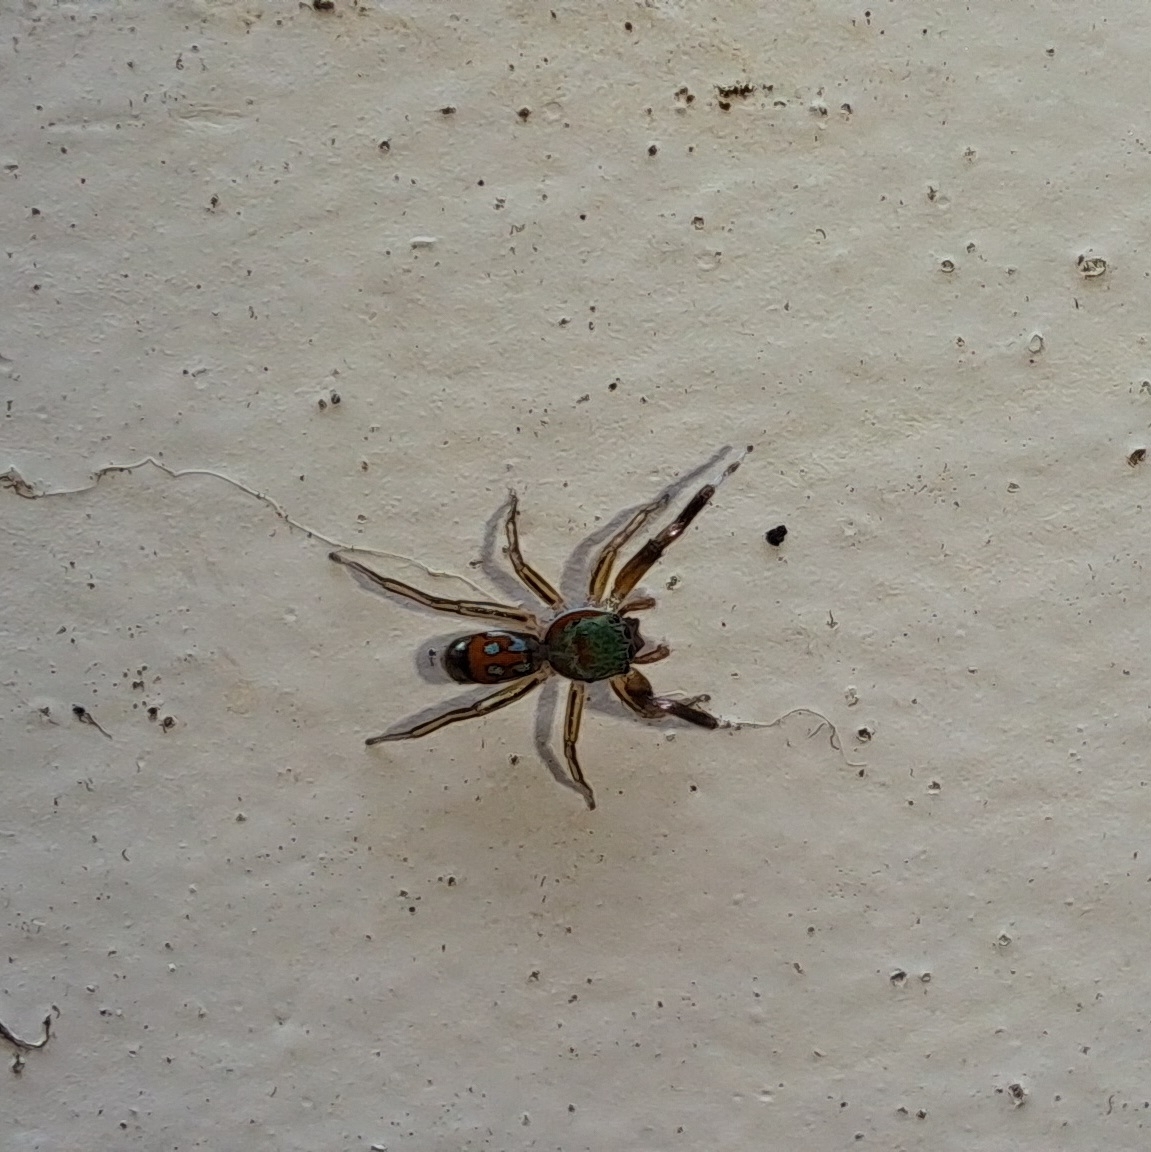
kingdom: Animalia
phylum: Arthropoda
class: Arachnida
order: Araneae
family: Salticidae
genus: Siler
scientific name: Siler semiglaucus
